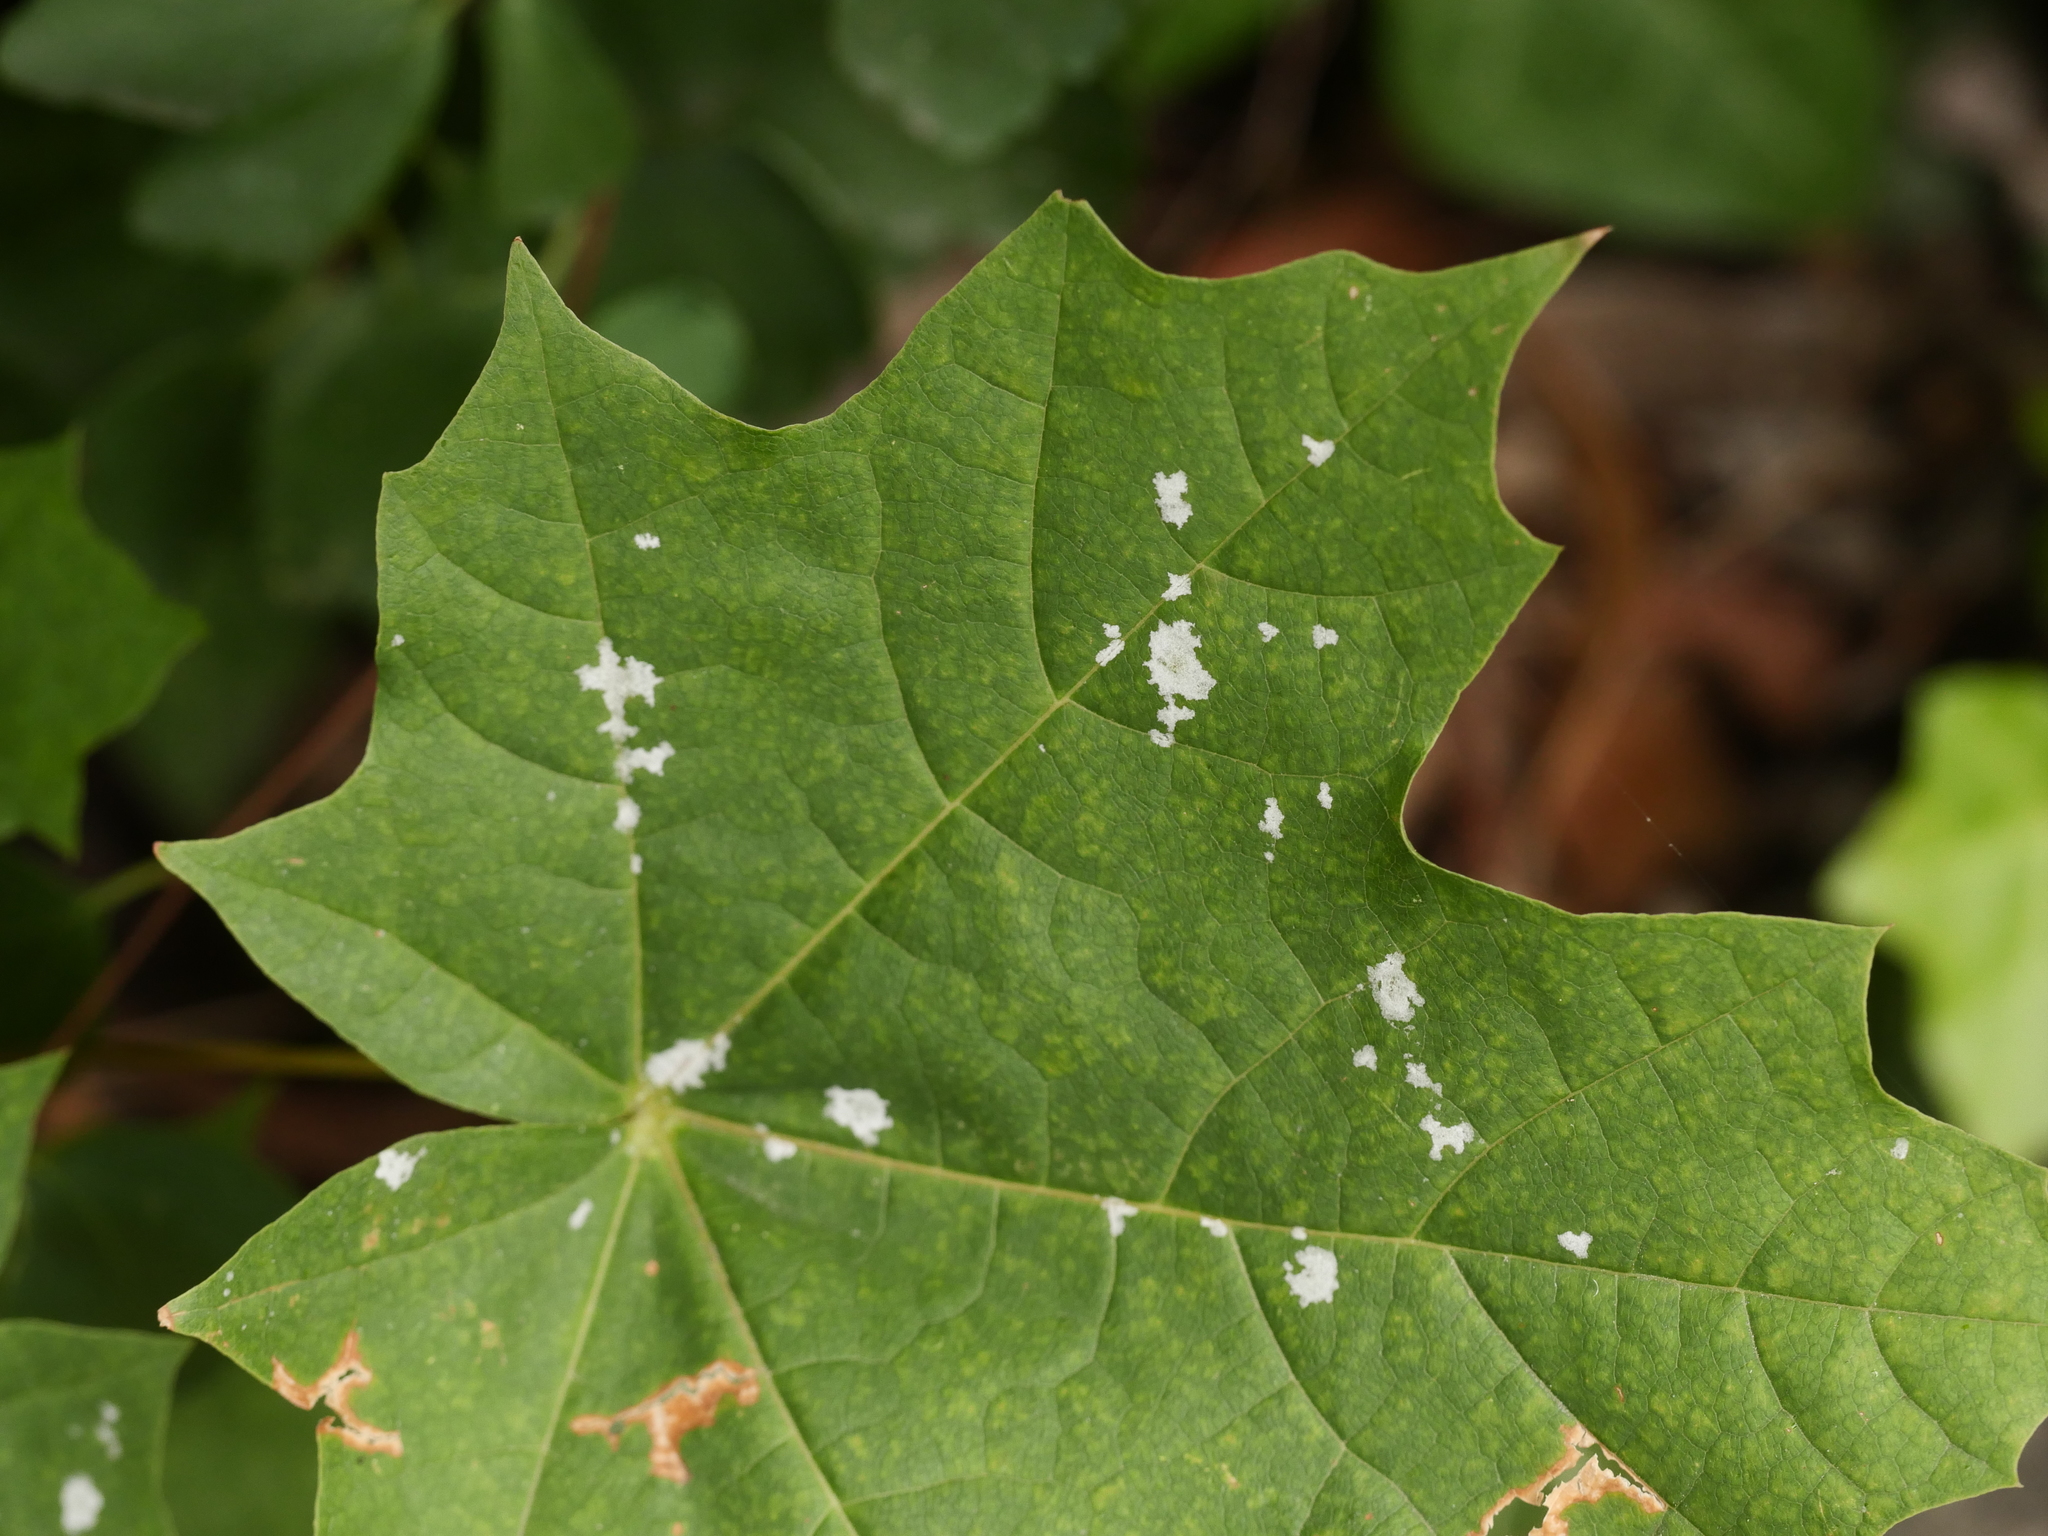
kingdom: Fungi
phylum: Ascomycota
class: Leotiomycetes
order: Helotiales
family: Erysiphaceae
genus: Sawadaea
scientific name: Sawadaea tulasnei
